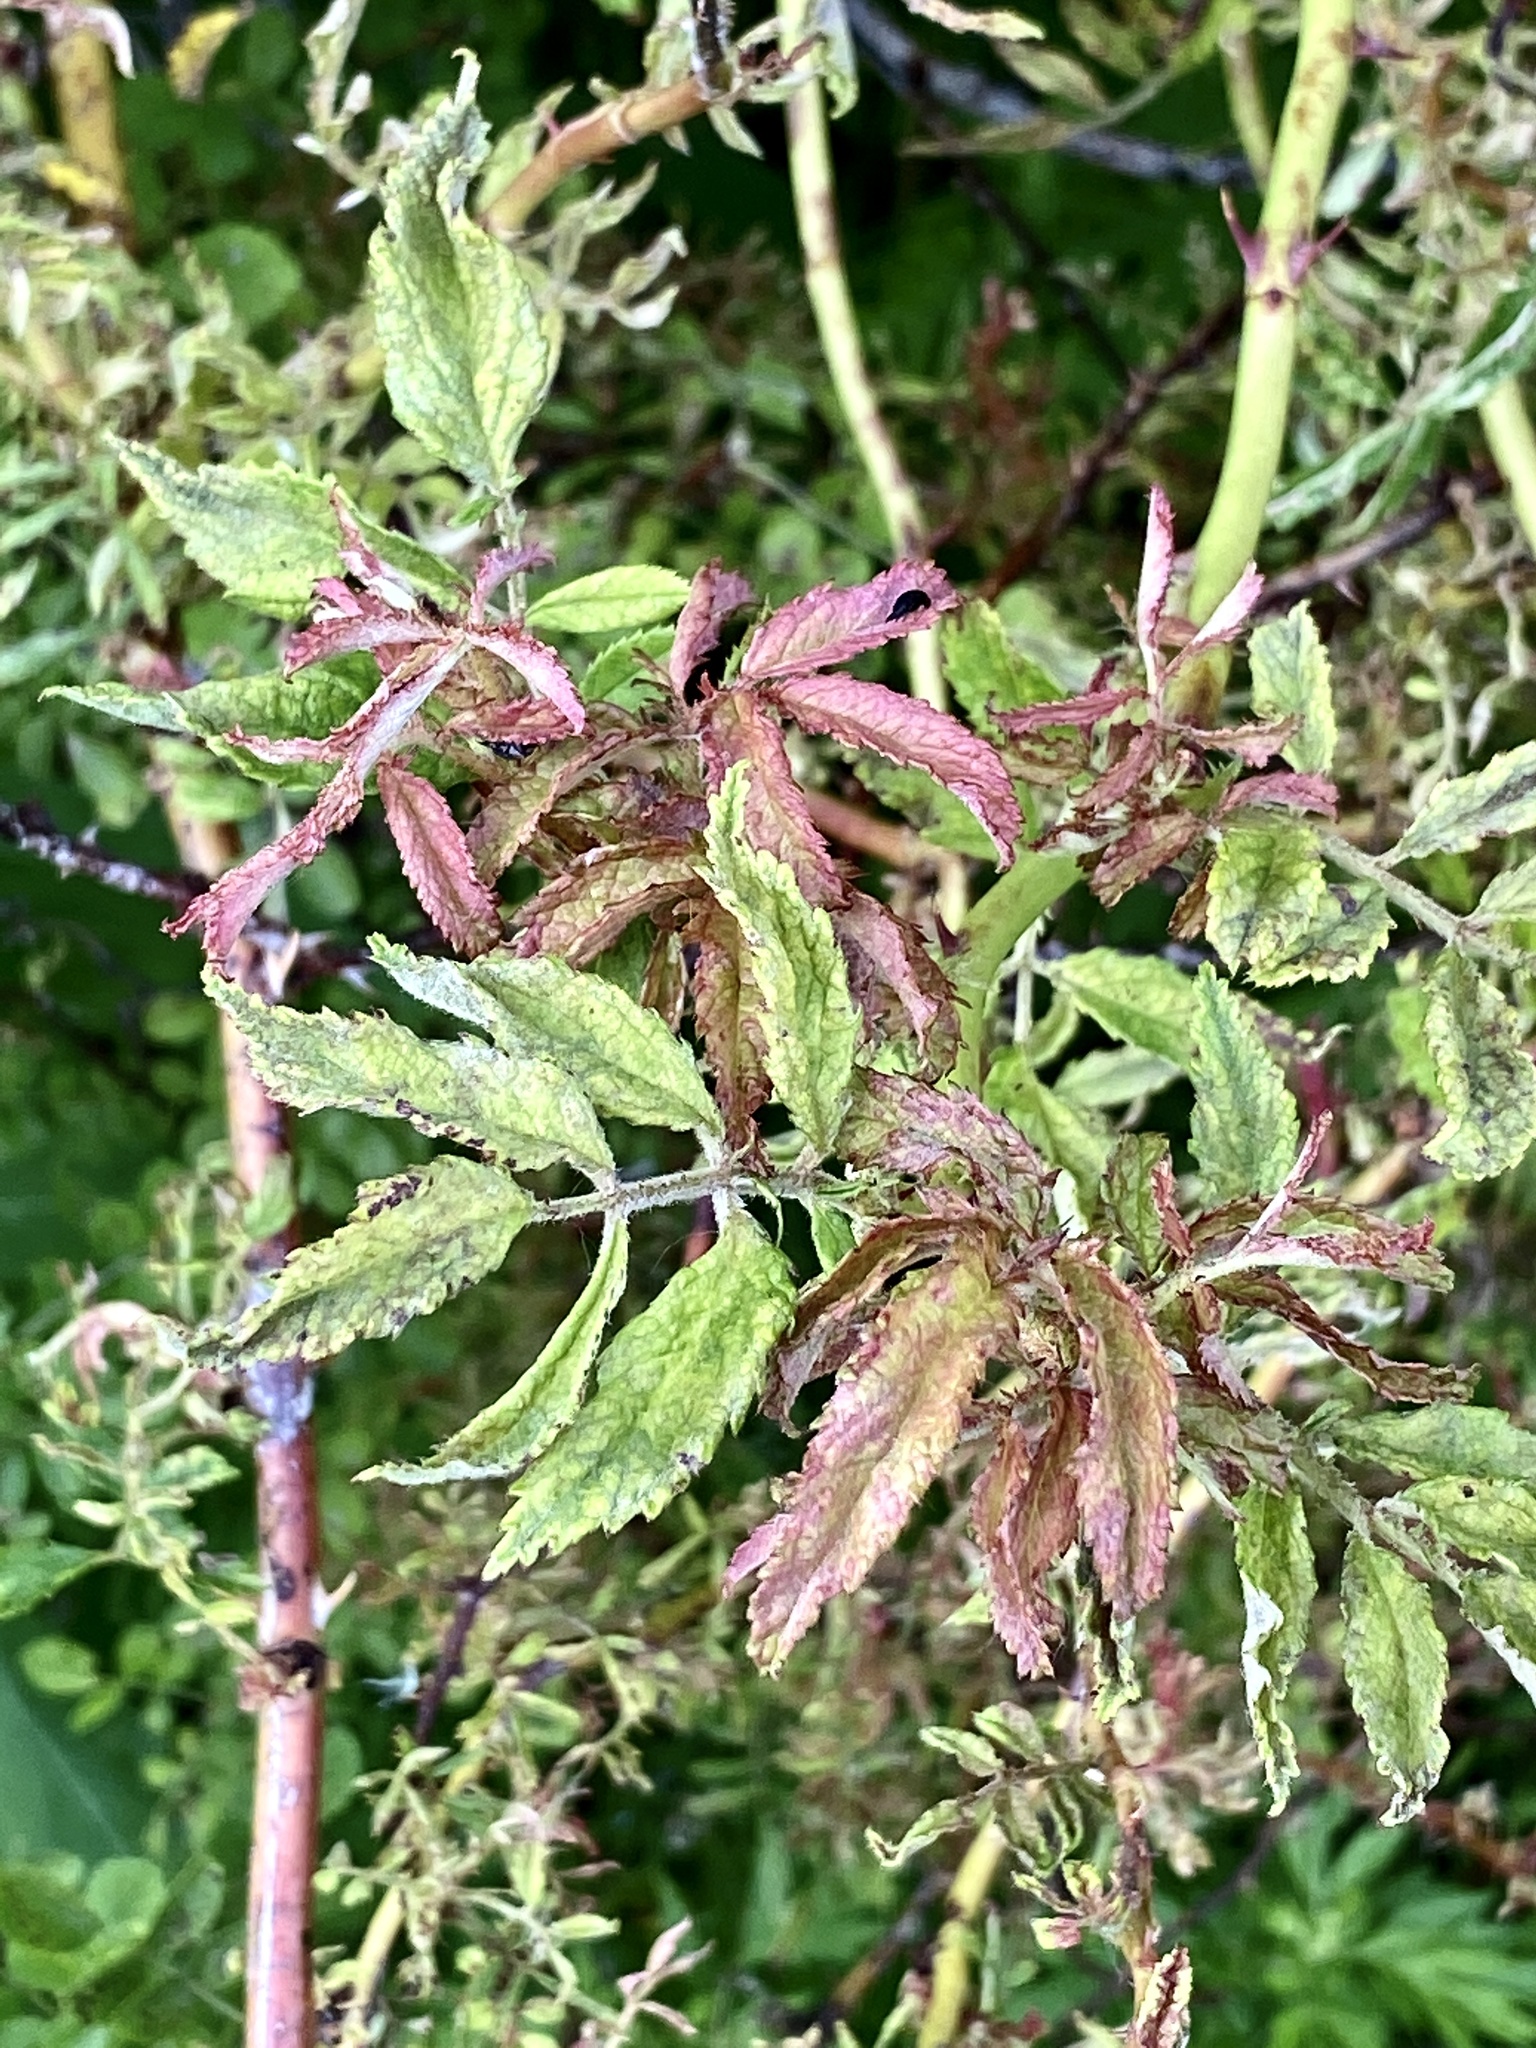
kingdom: Viruses
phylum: Negarnaviricota
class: Ellioviricetes
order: Bunyavirales
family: Fimoviridae
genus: Emaravirus
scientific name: Emaravirus rosae
